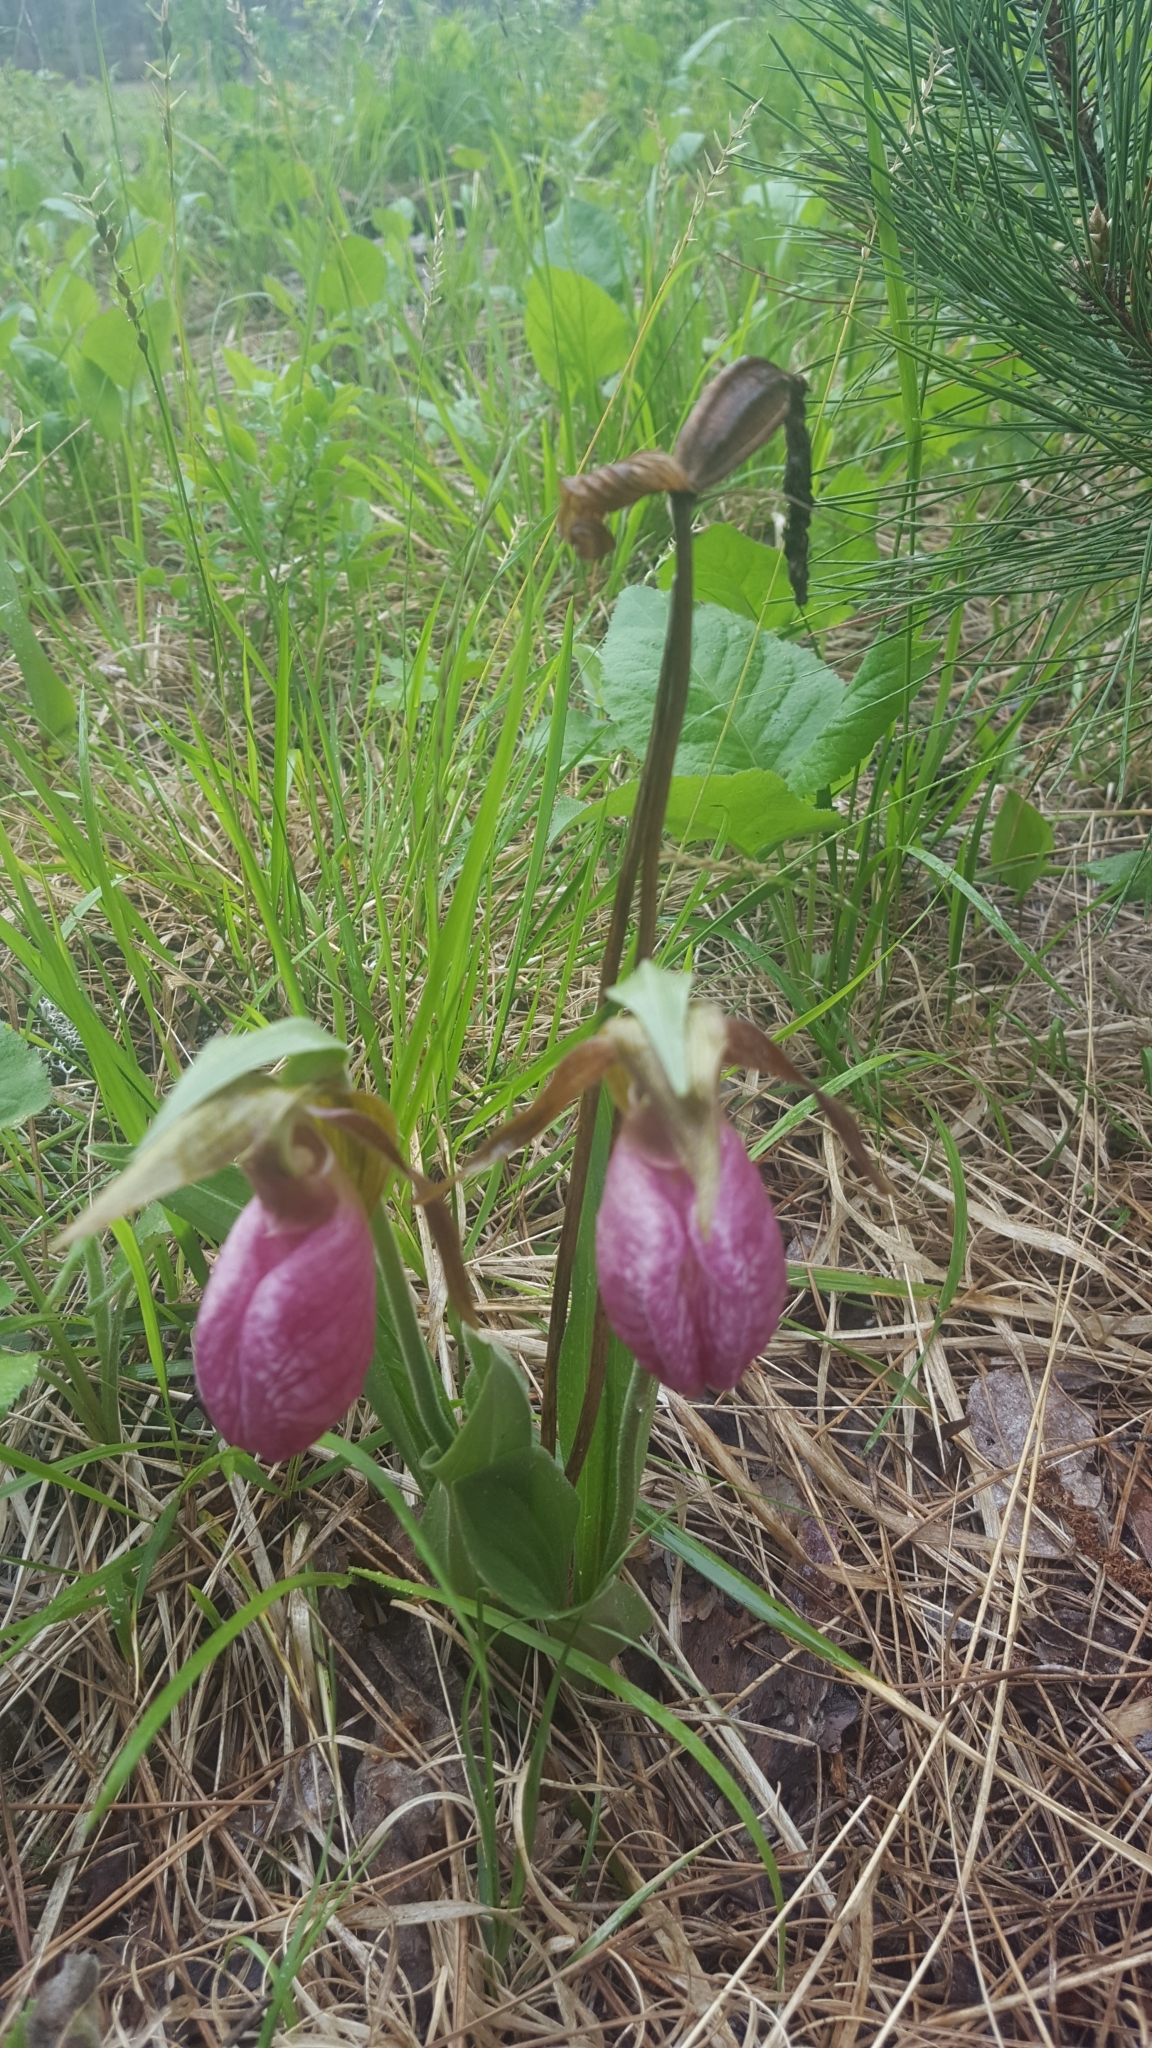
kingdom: Plantae
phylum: Tracheophyta
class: Liliopsida
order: Asparagales
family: Orchidaceae
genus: Cypripedium
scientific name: Cypripedium acaule
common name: Pink lady's-slipper
